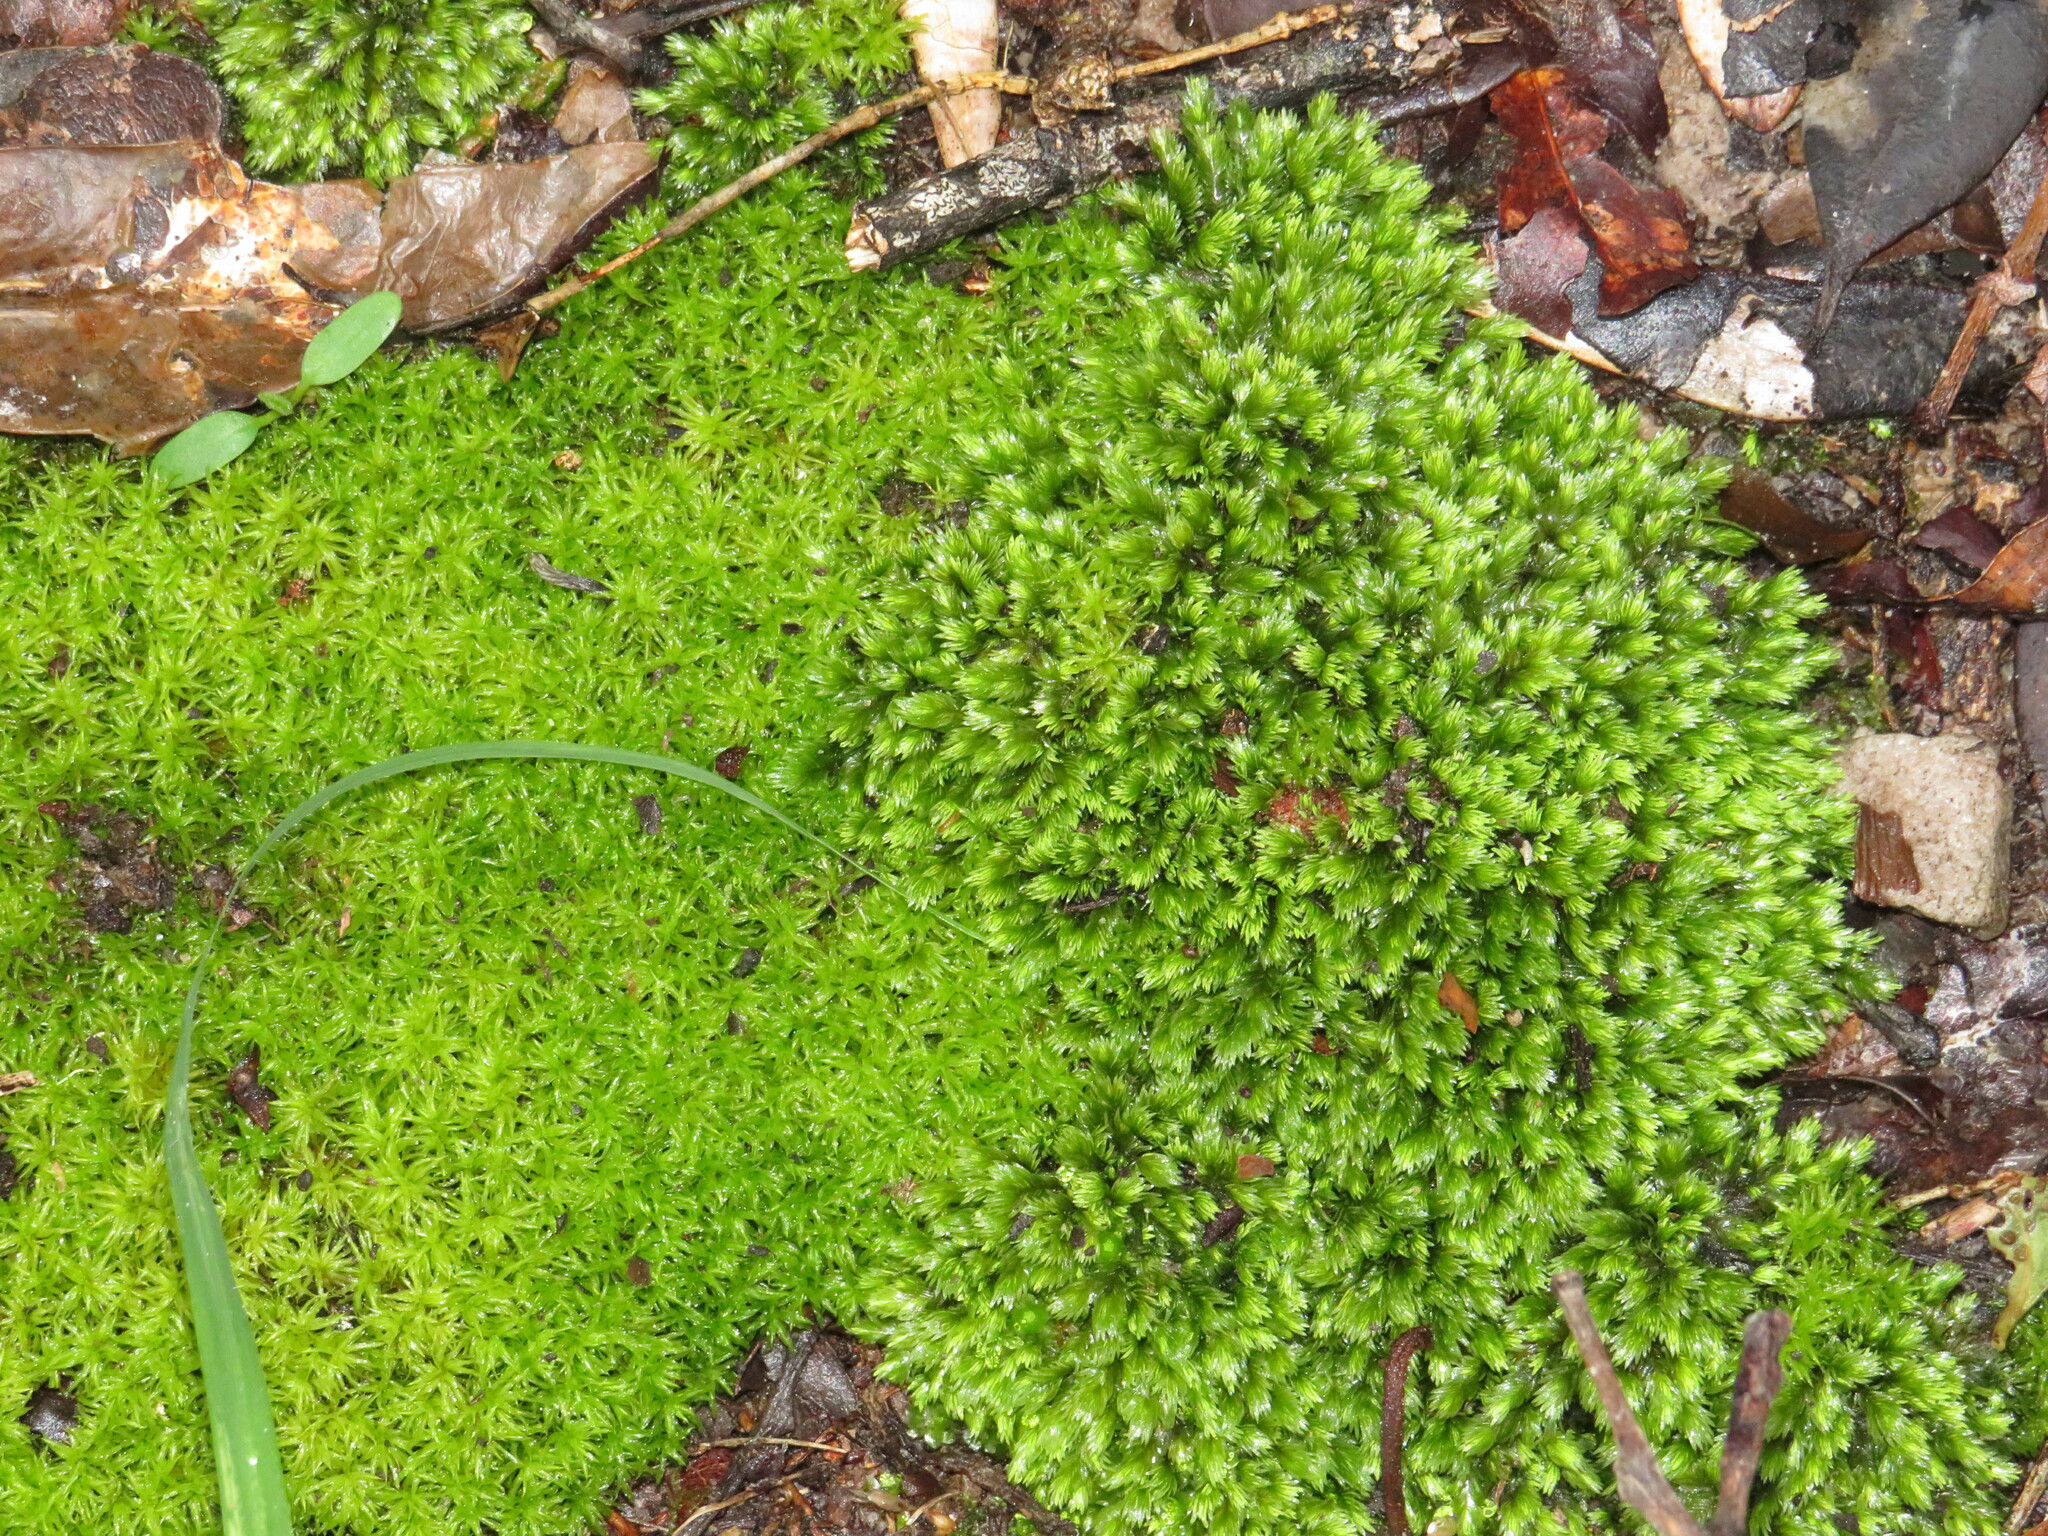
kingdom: Plantae
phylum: Bryophyta
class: Bryopsida
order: Dicranales
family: Calymperaceae
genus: Syrrhopodon
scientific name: Syrrhopodon gaudichaudii
